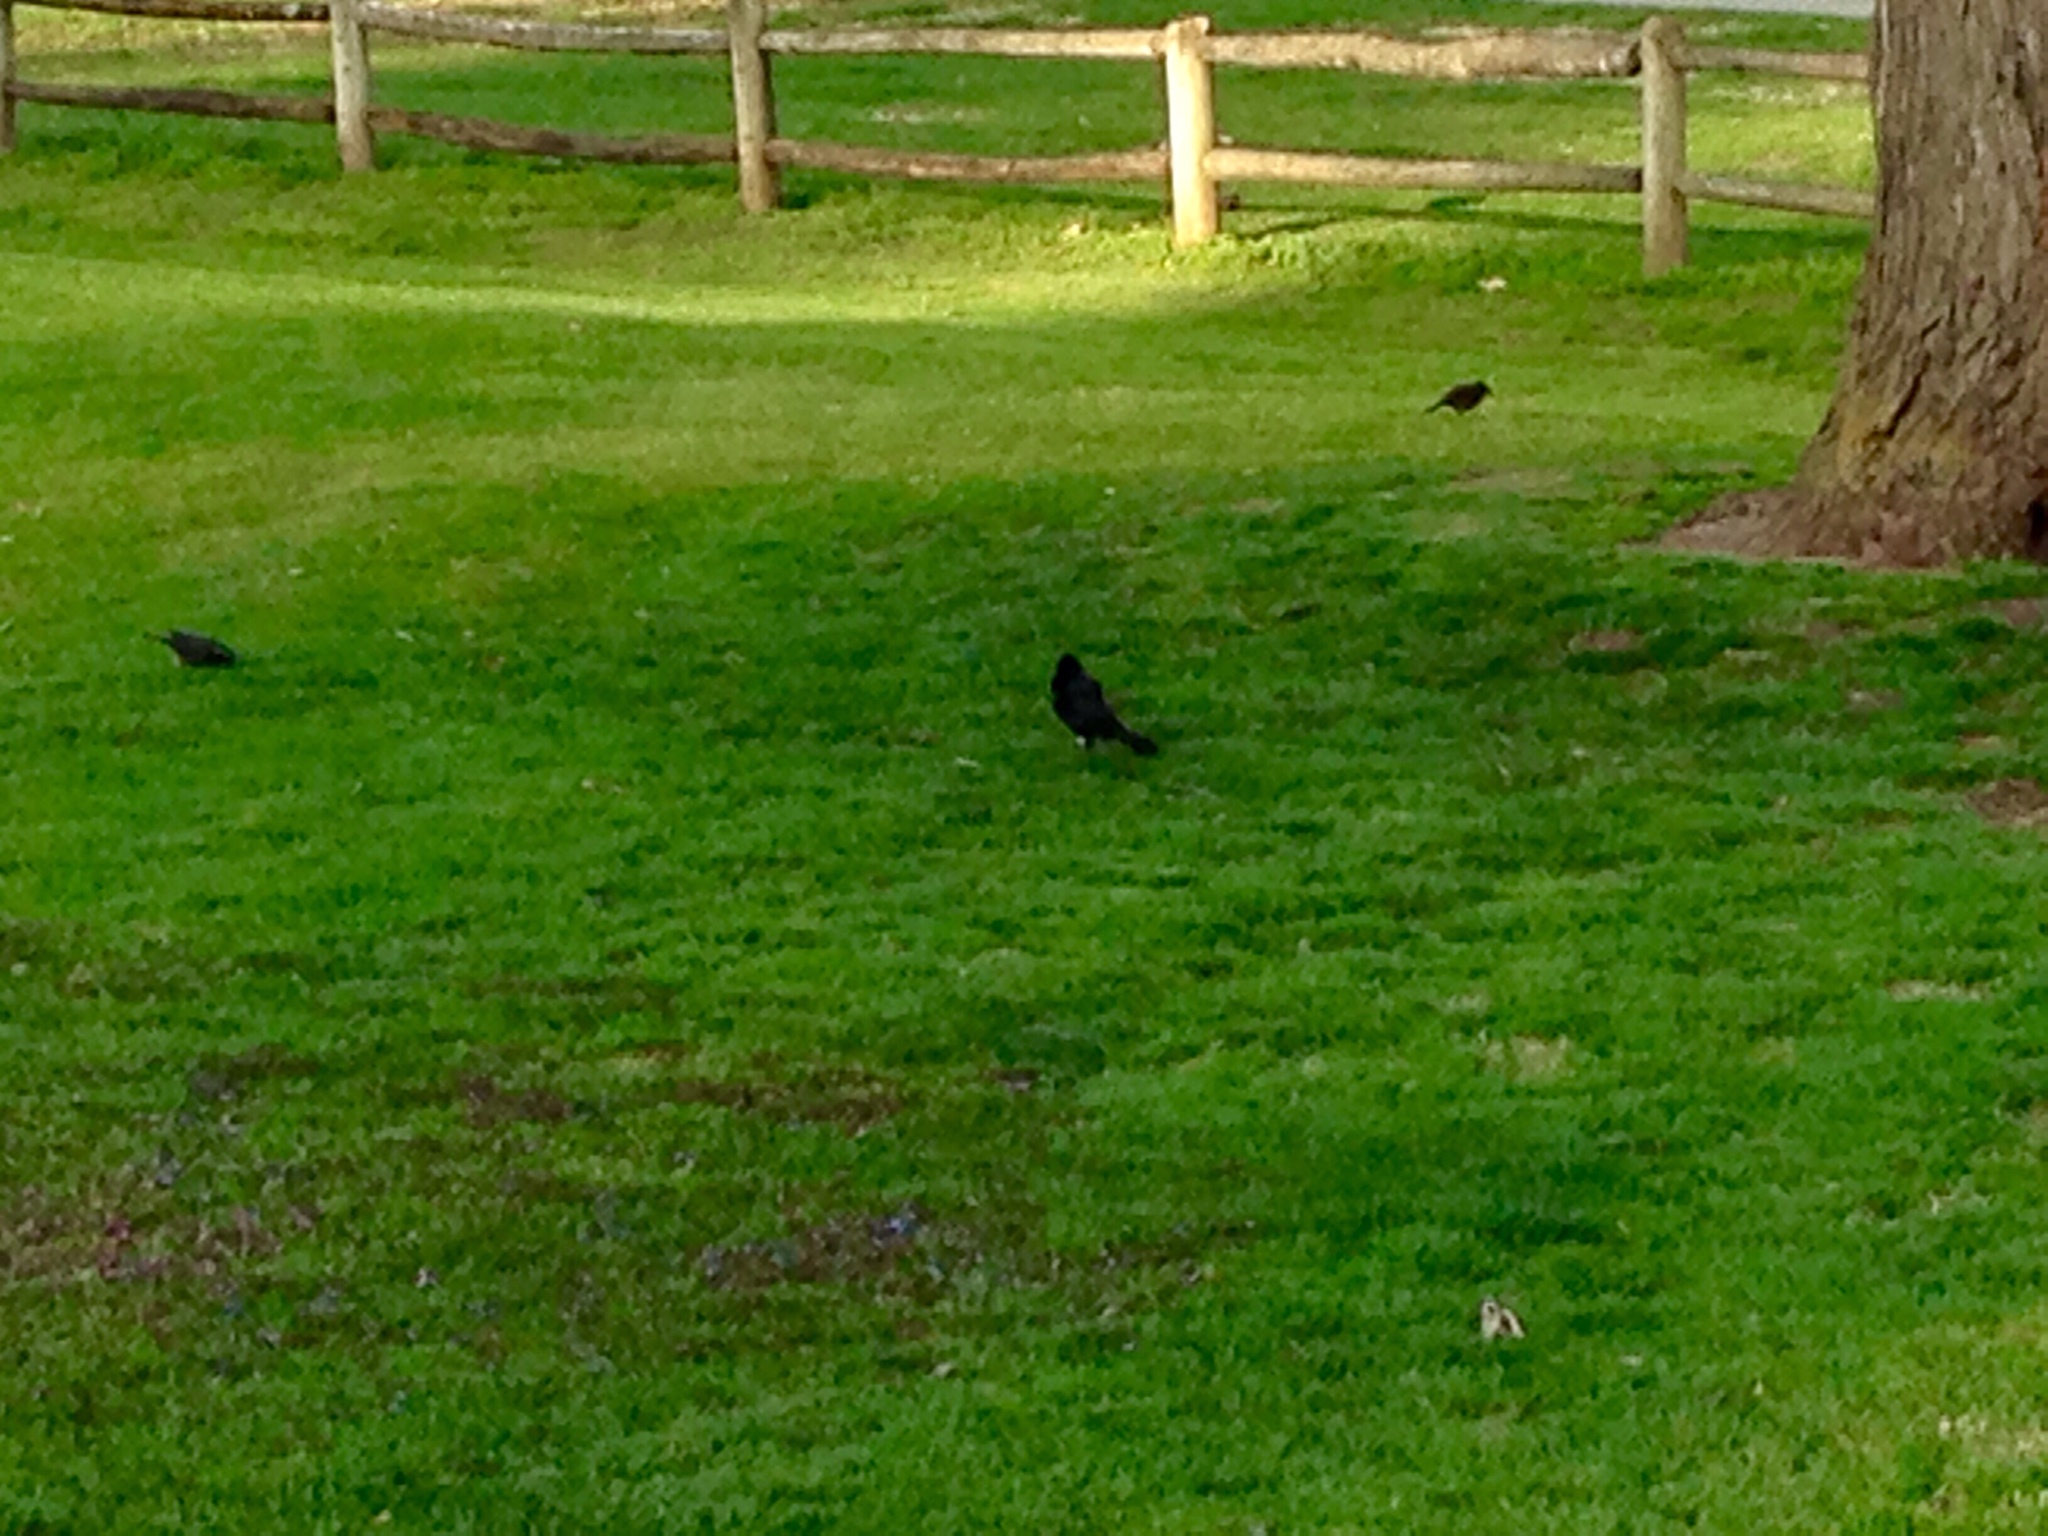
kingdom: Animalia
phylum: Chordata
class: Aves
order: Passeriformes
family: Icteridae
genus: Quiscalus
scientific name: Quiscalus quiscula
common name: Common grackle
